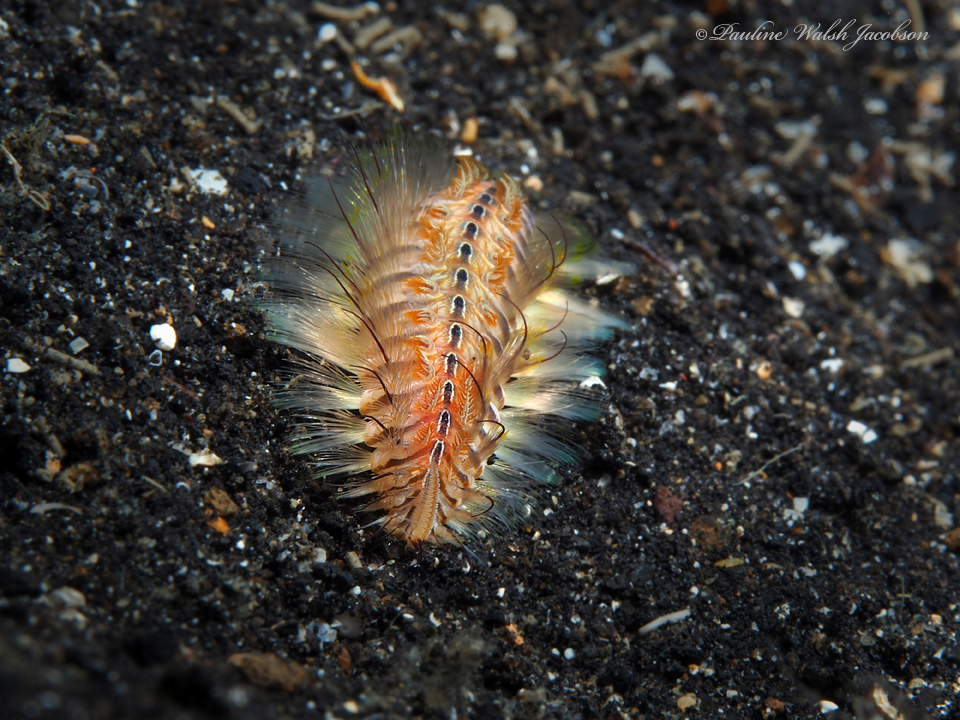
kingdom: Animalia
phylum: Annelida
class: Polychaeta
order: Amphinomida
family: Amphinomidae
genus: Chloeia
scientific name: Chloeia amphora
